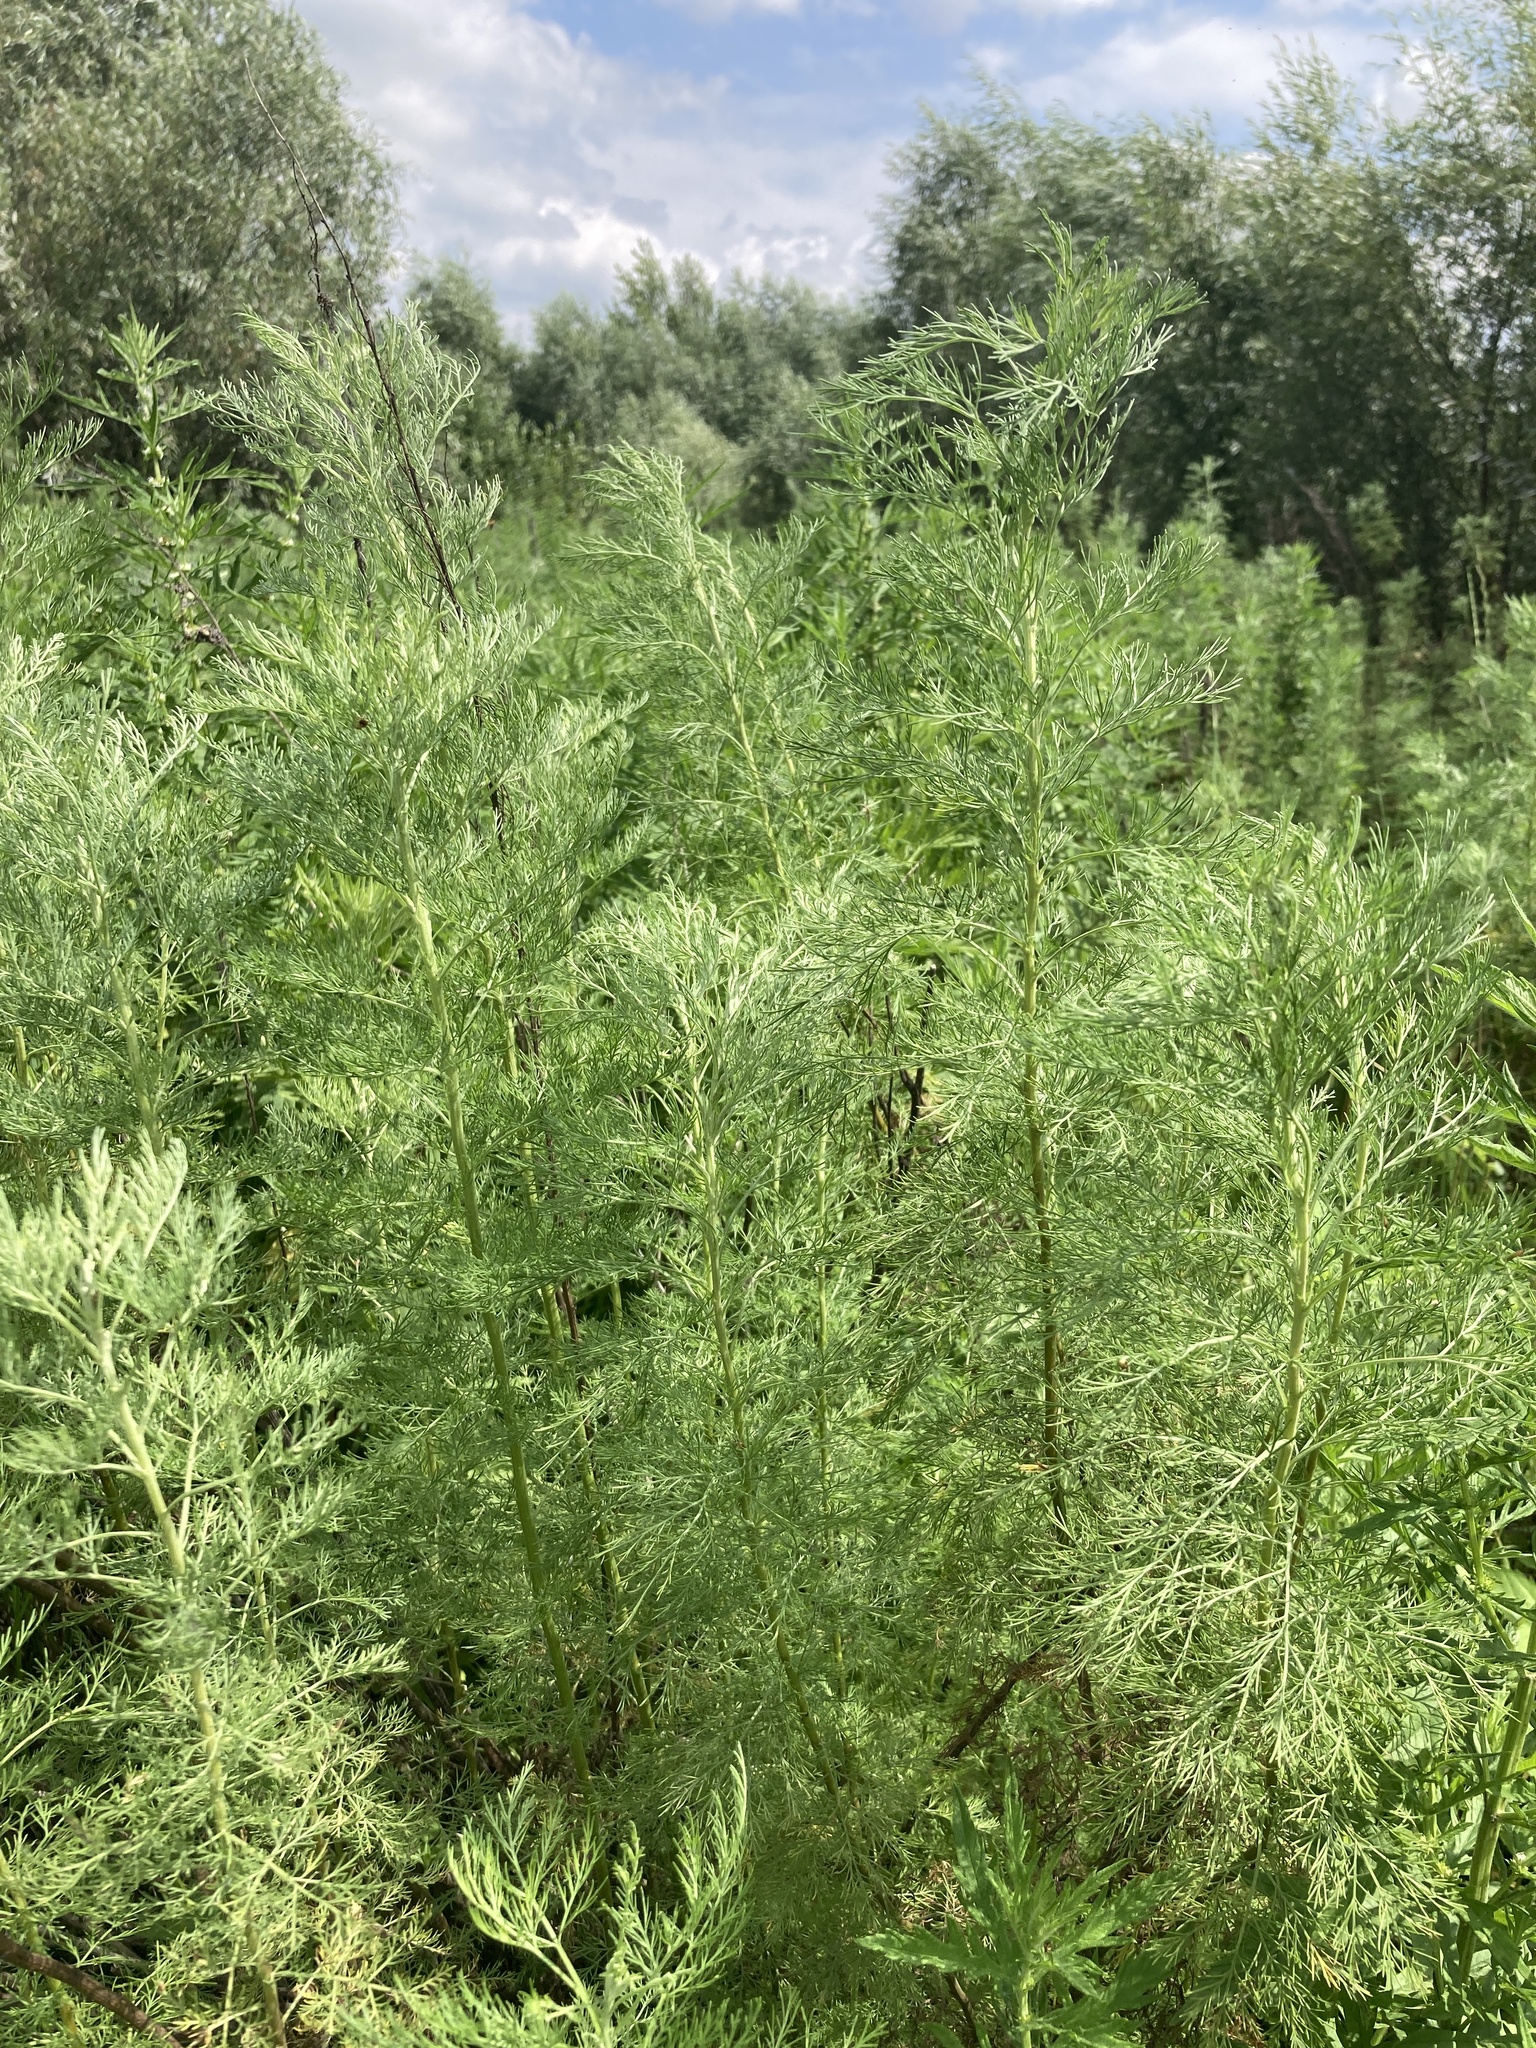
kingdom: Plantae
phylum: Tracheophyta
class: Magnoliopsida
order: Asterales
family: Asteraceae
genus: Artemisia
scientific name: Artemisia abrotanum
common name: Southernwood
